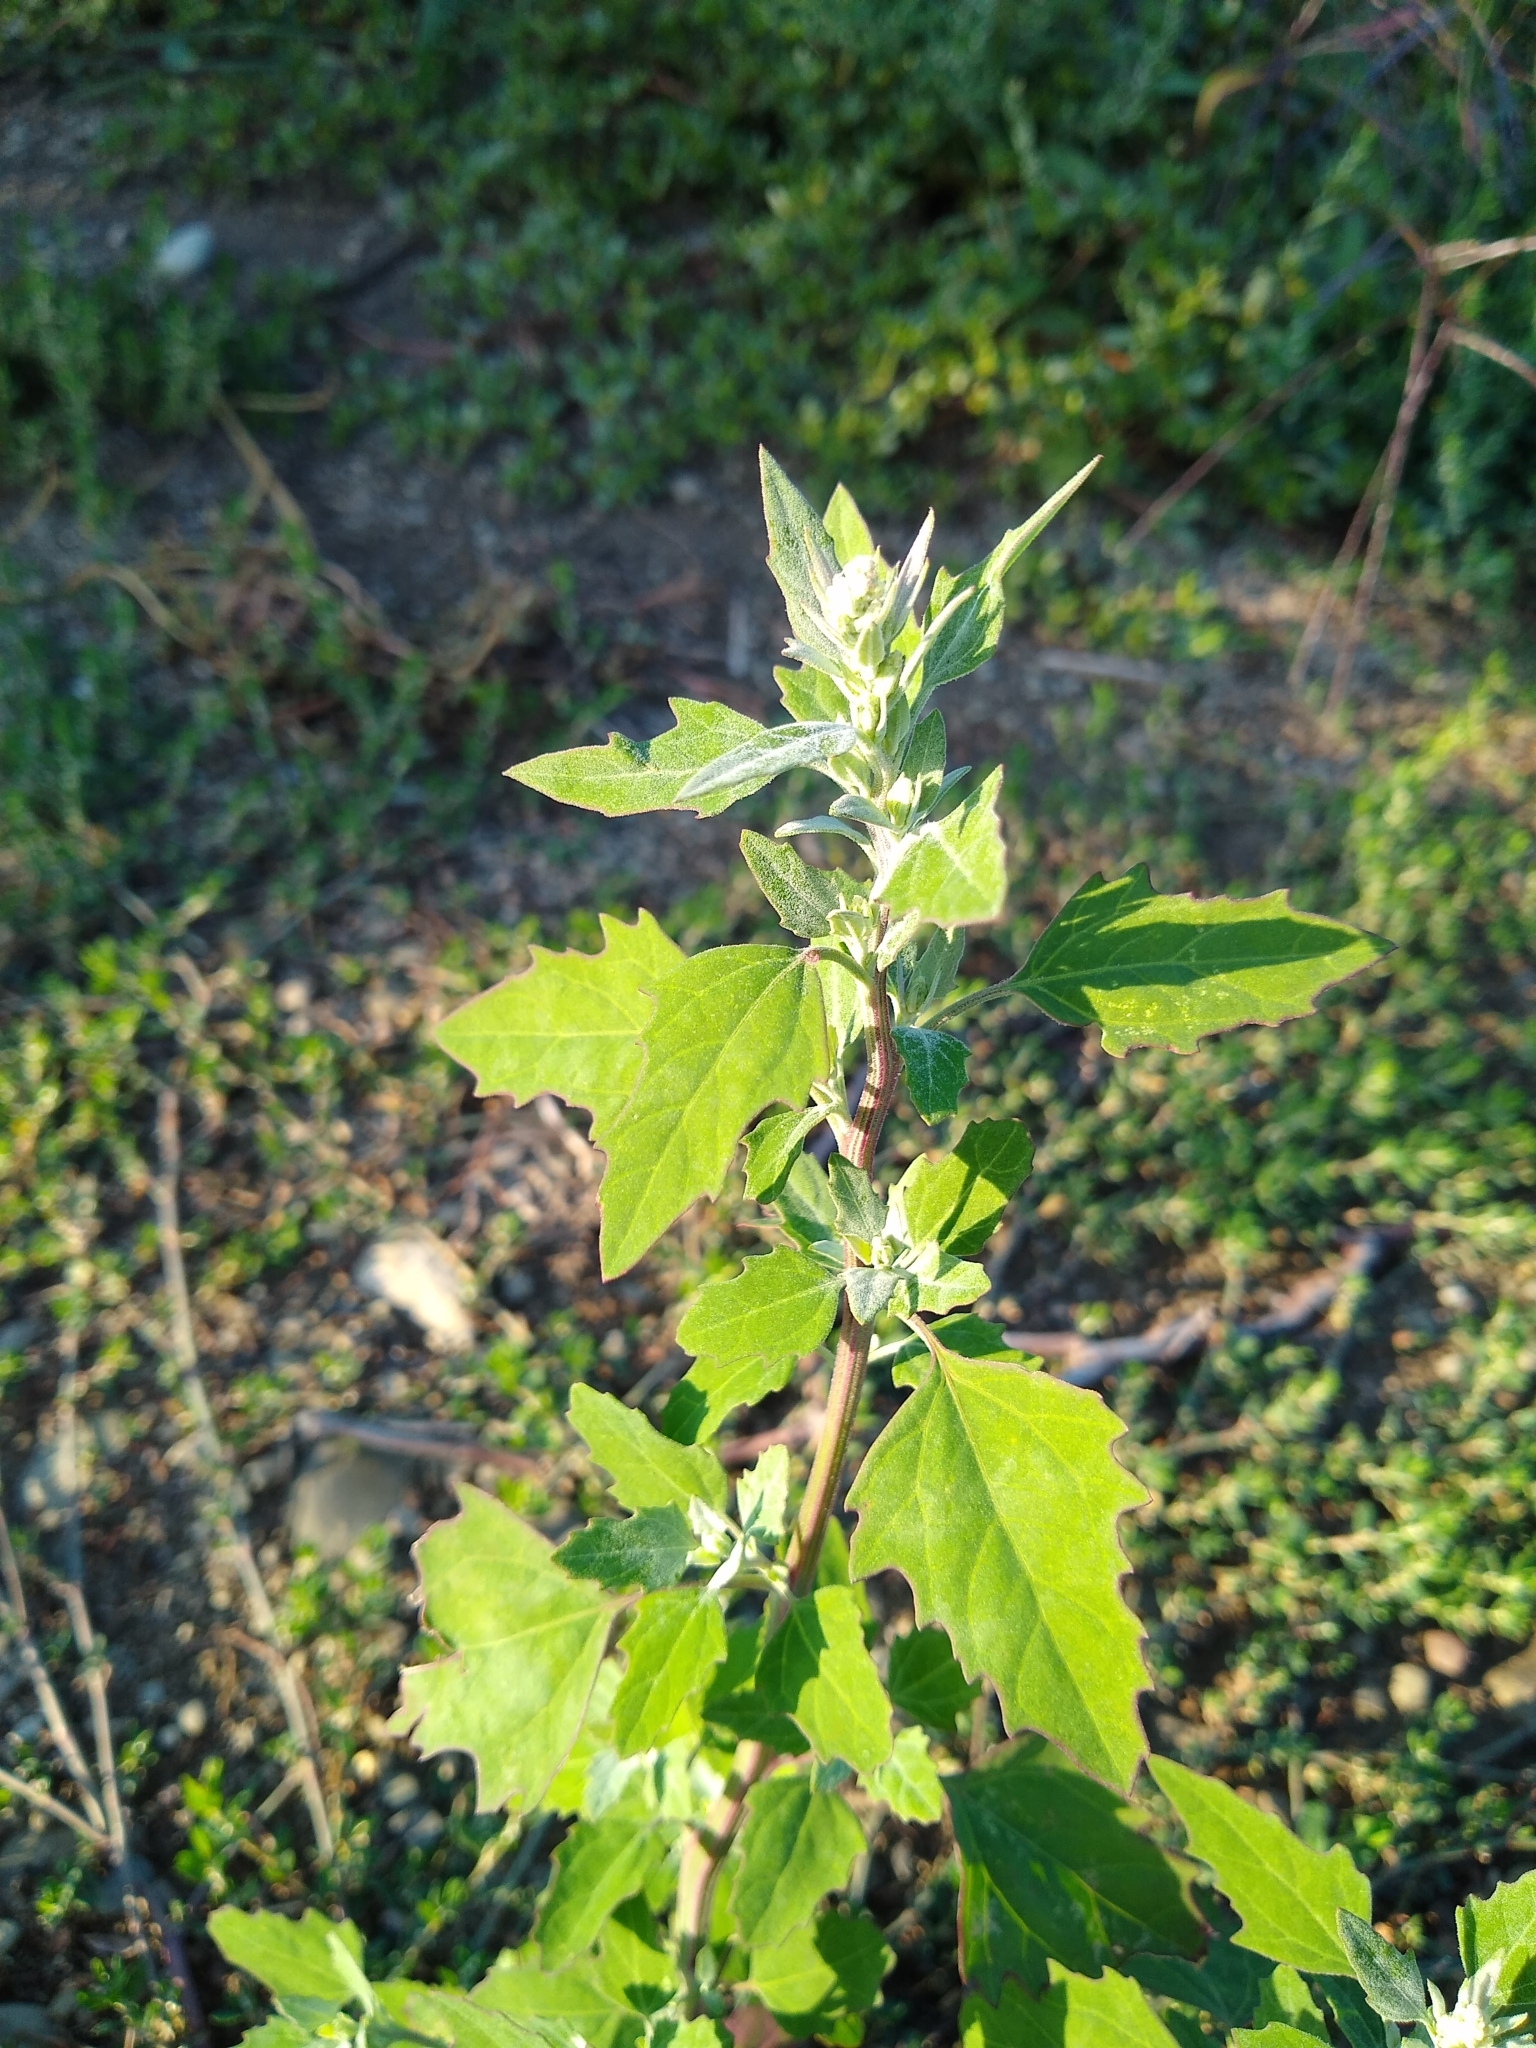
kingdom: Plantae
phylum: Tracheophyta
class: Magnoliopsida
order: Caryophyllales
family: Amaranthaceae
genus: Chenopodium
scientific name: Chenopodium album
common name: Fat-hen
